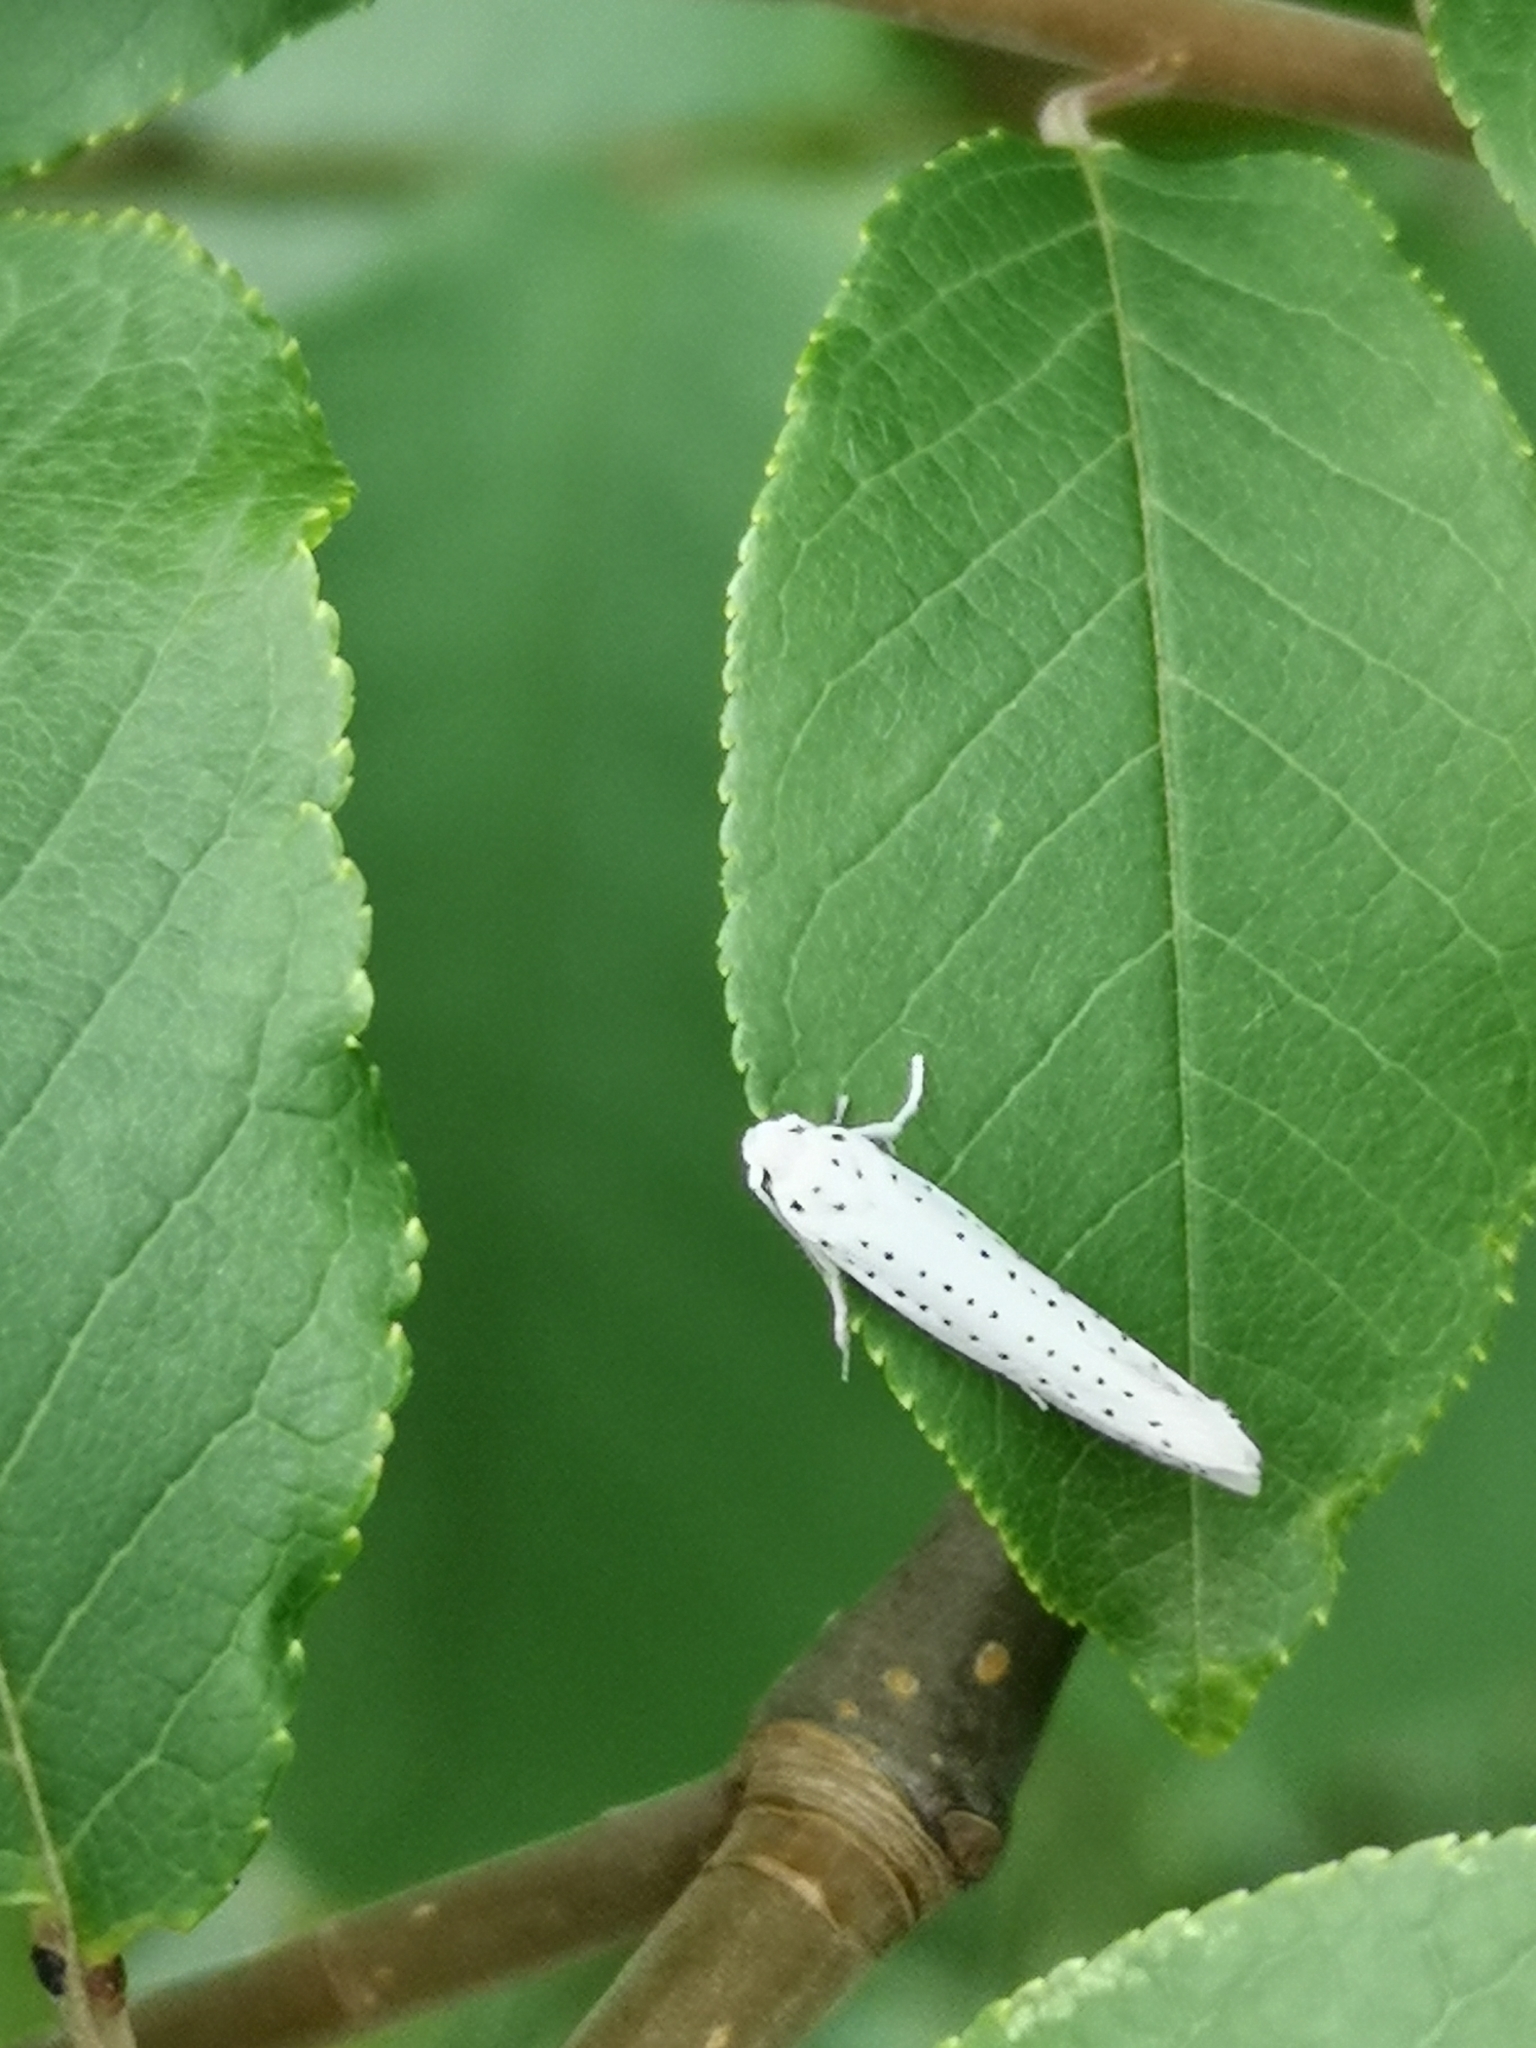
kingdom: Animalia
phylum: Arthropoda
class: Insecta
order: Lepidoptera
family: Yponomeutidae
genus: Yponomeuta
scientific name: Yponomeuta evonymella
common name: Bird-cherry ermine
